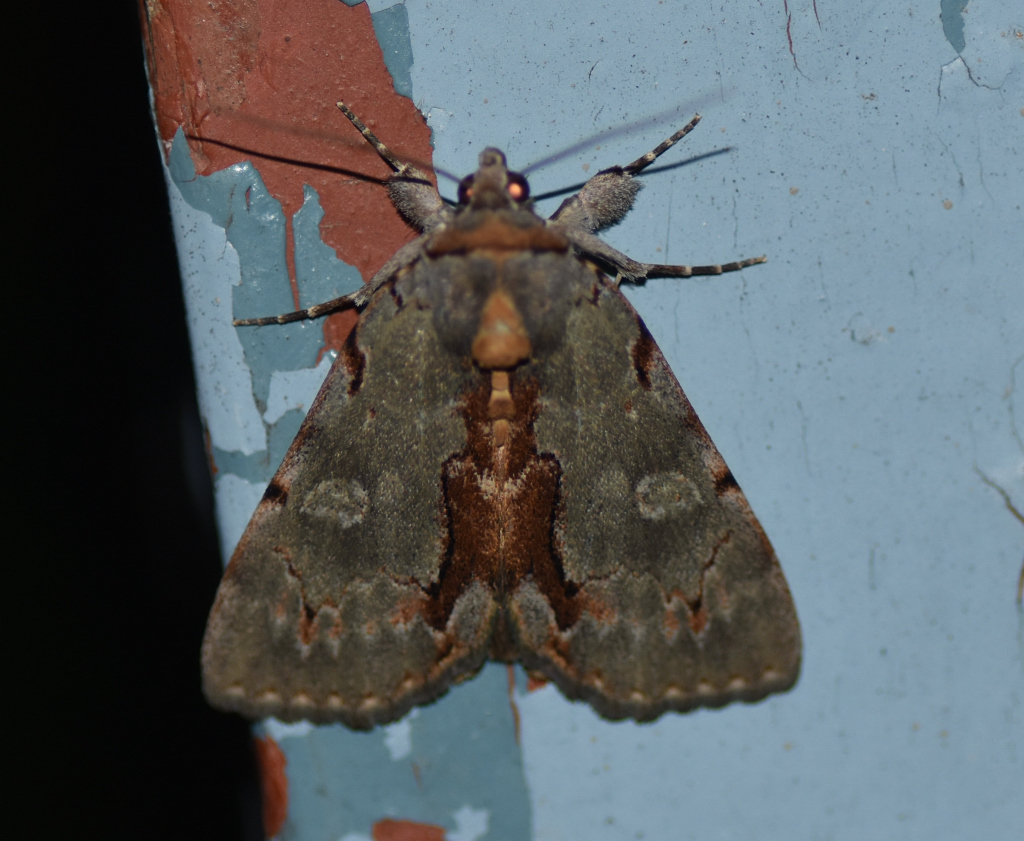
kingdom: Animalia
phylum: Arthropoda
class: Insecta
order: Lepidoptera
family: Erebidae
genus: Catocala
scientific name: Catocala grynea
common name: Woody underwing
